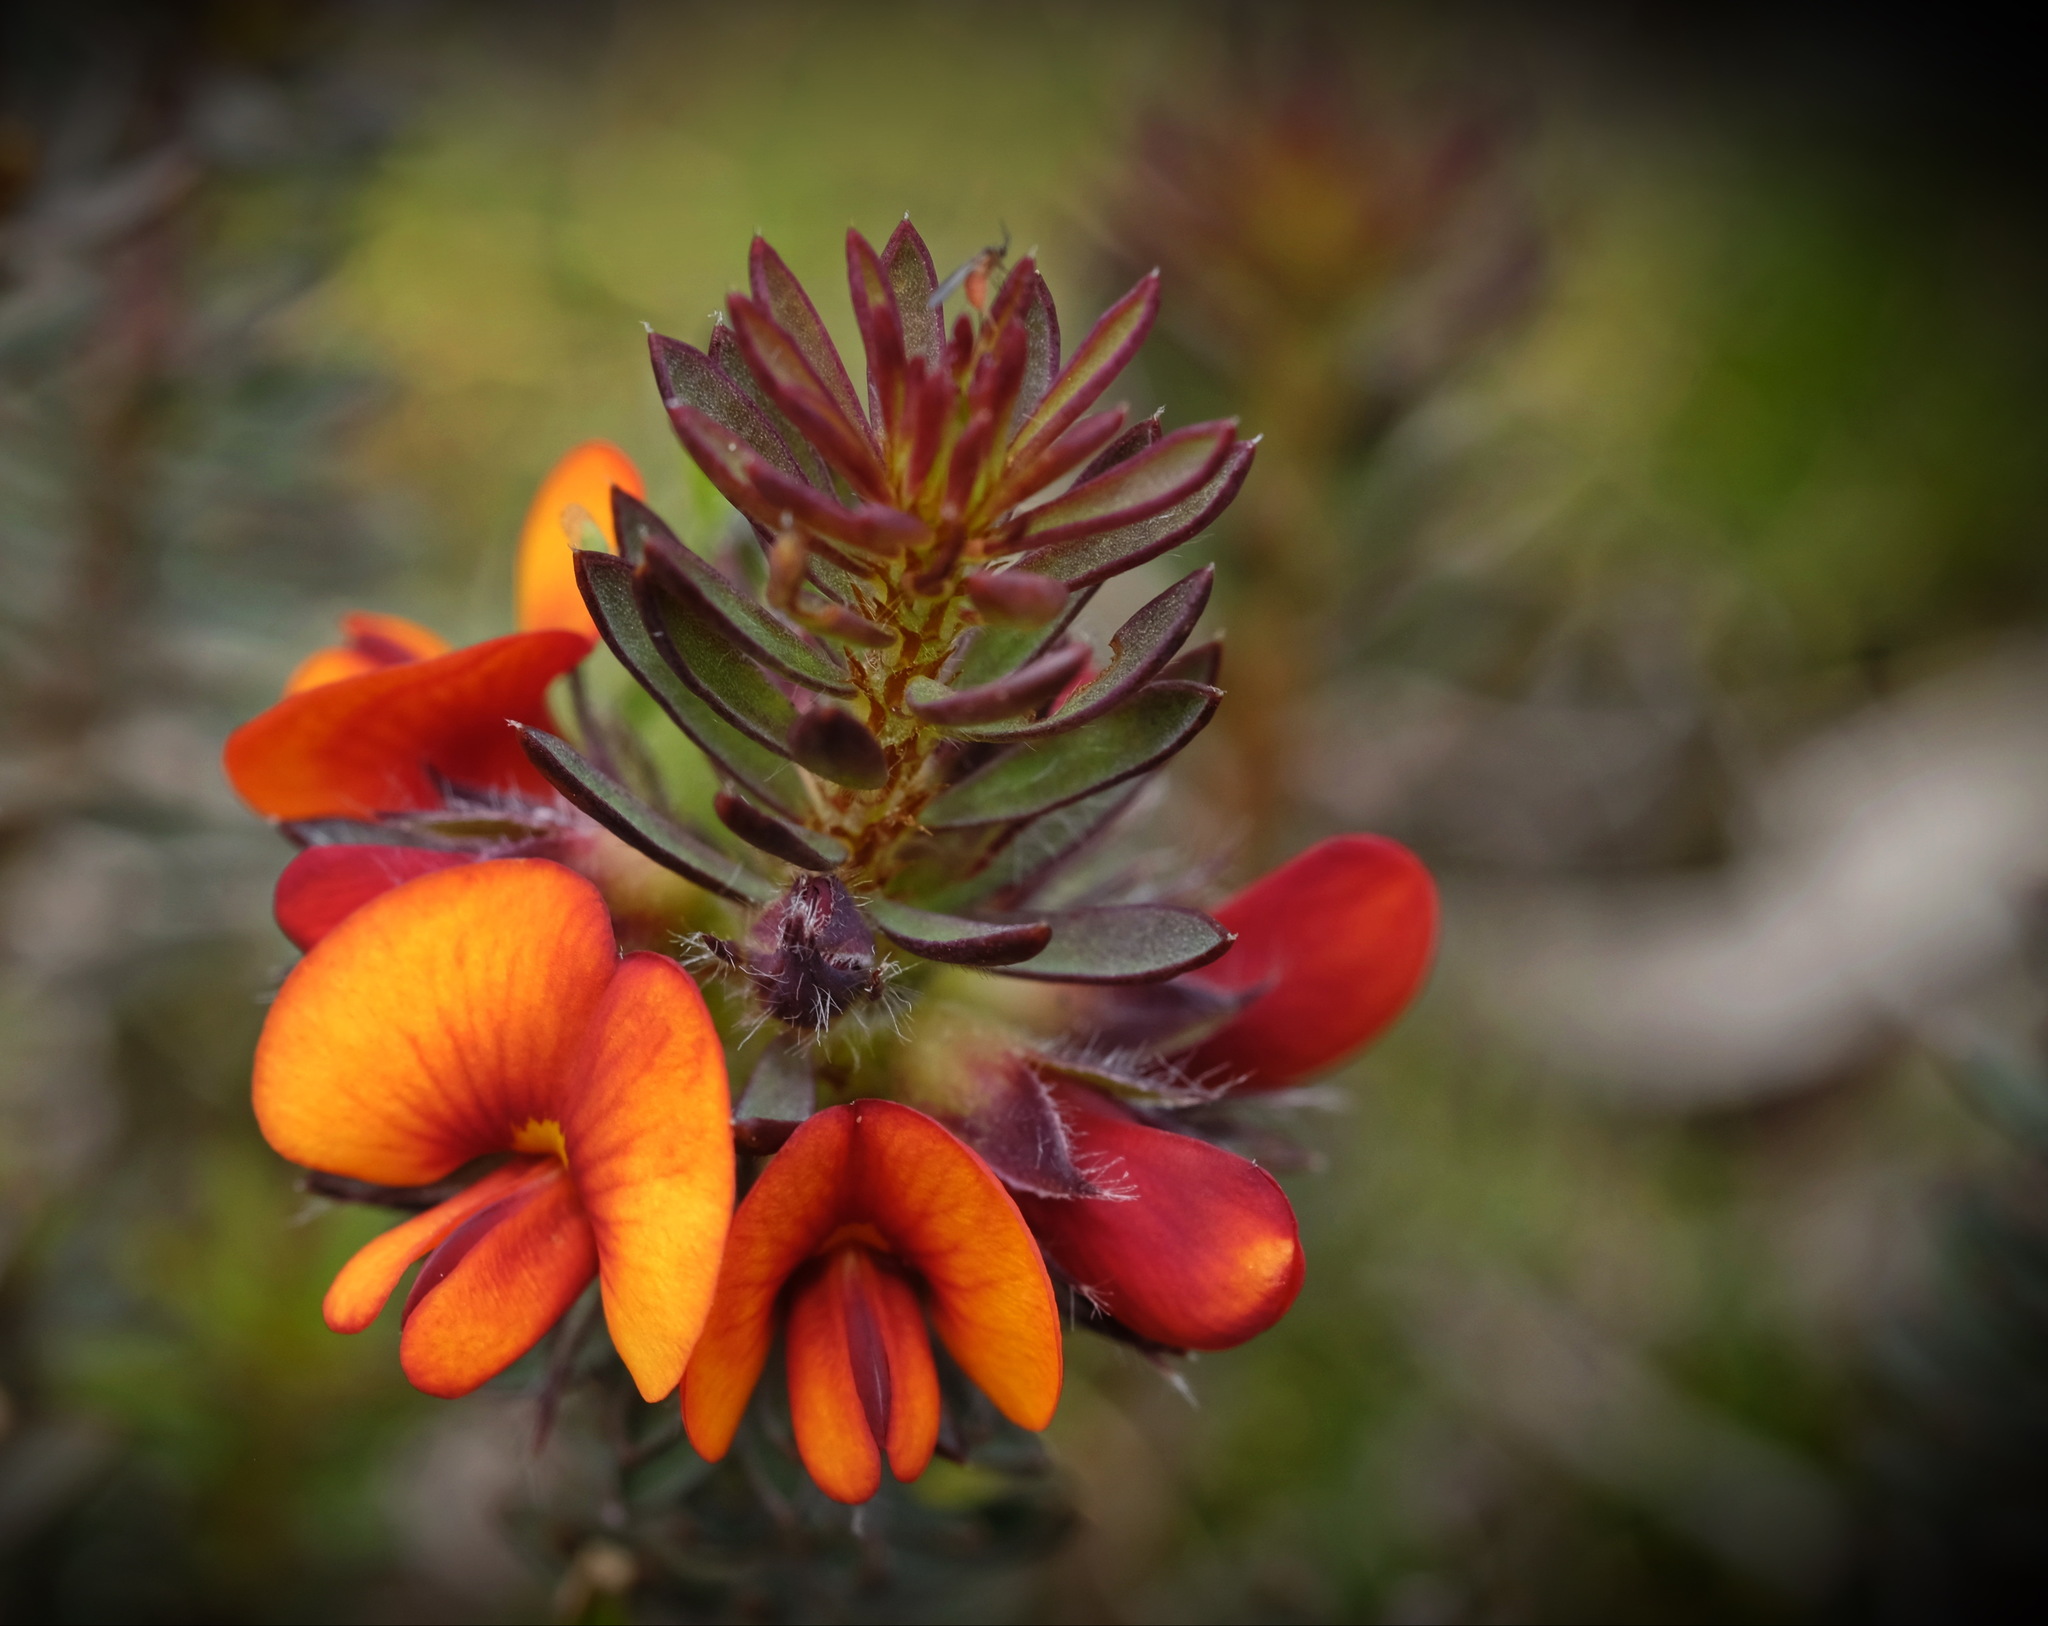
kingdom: Plantae
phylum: Tracheophyta
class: Magnoliopsida
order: Fabales
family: Fabaceae
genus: Pultenaea
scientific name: Pultenaea humilis
